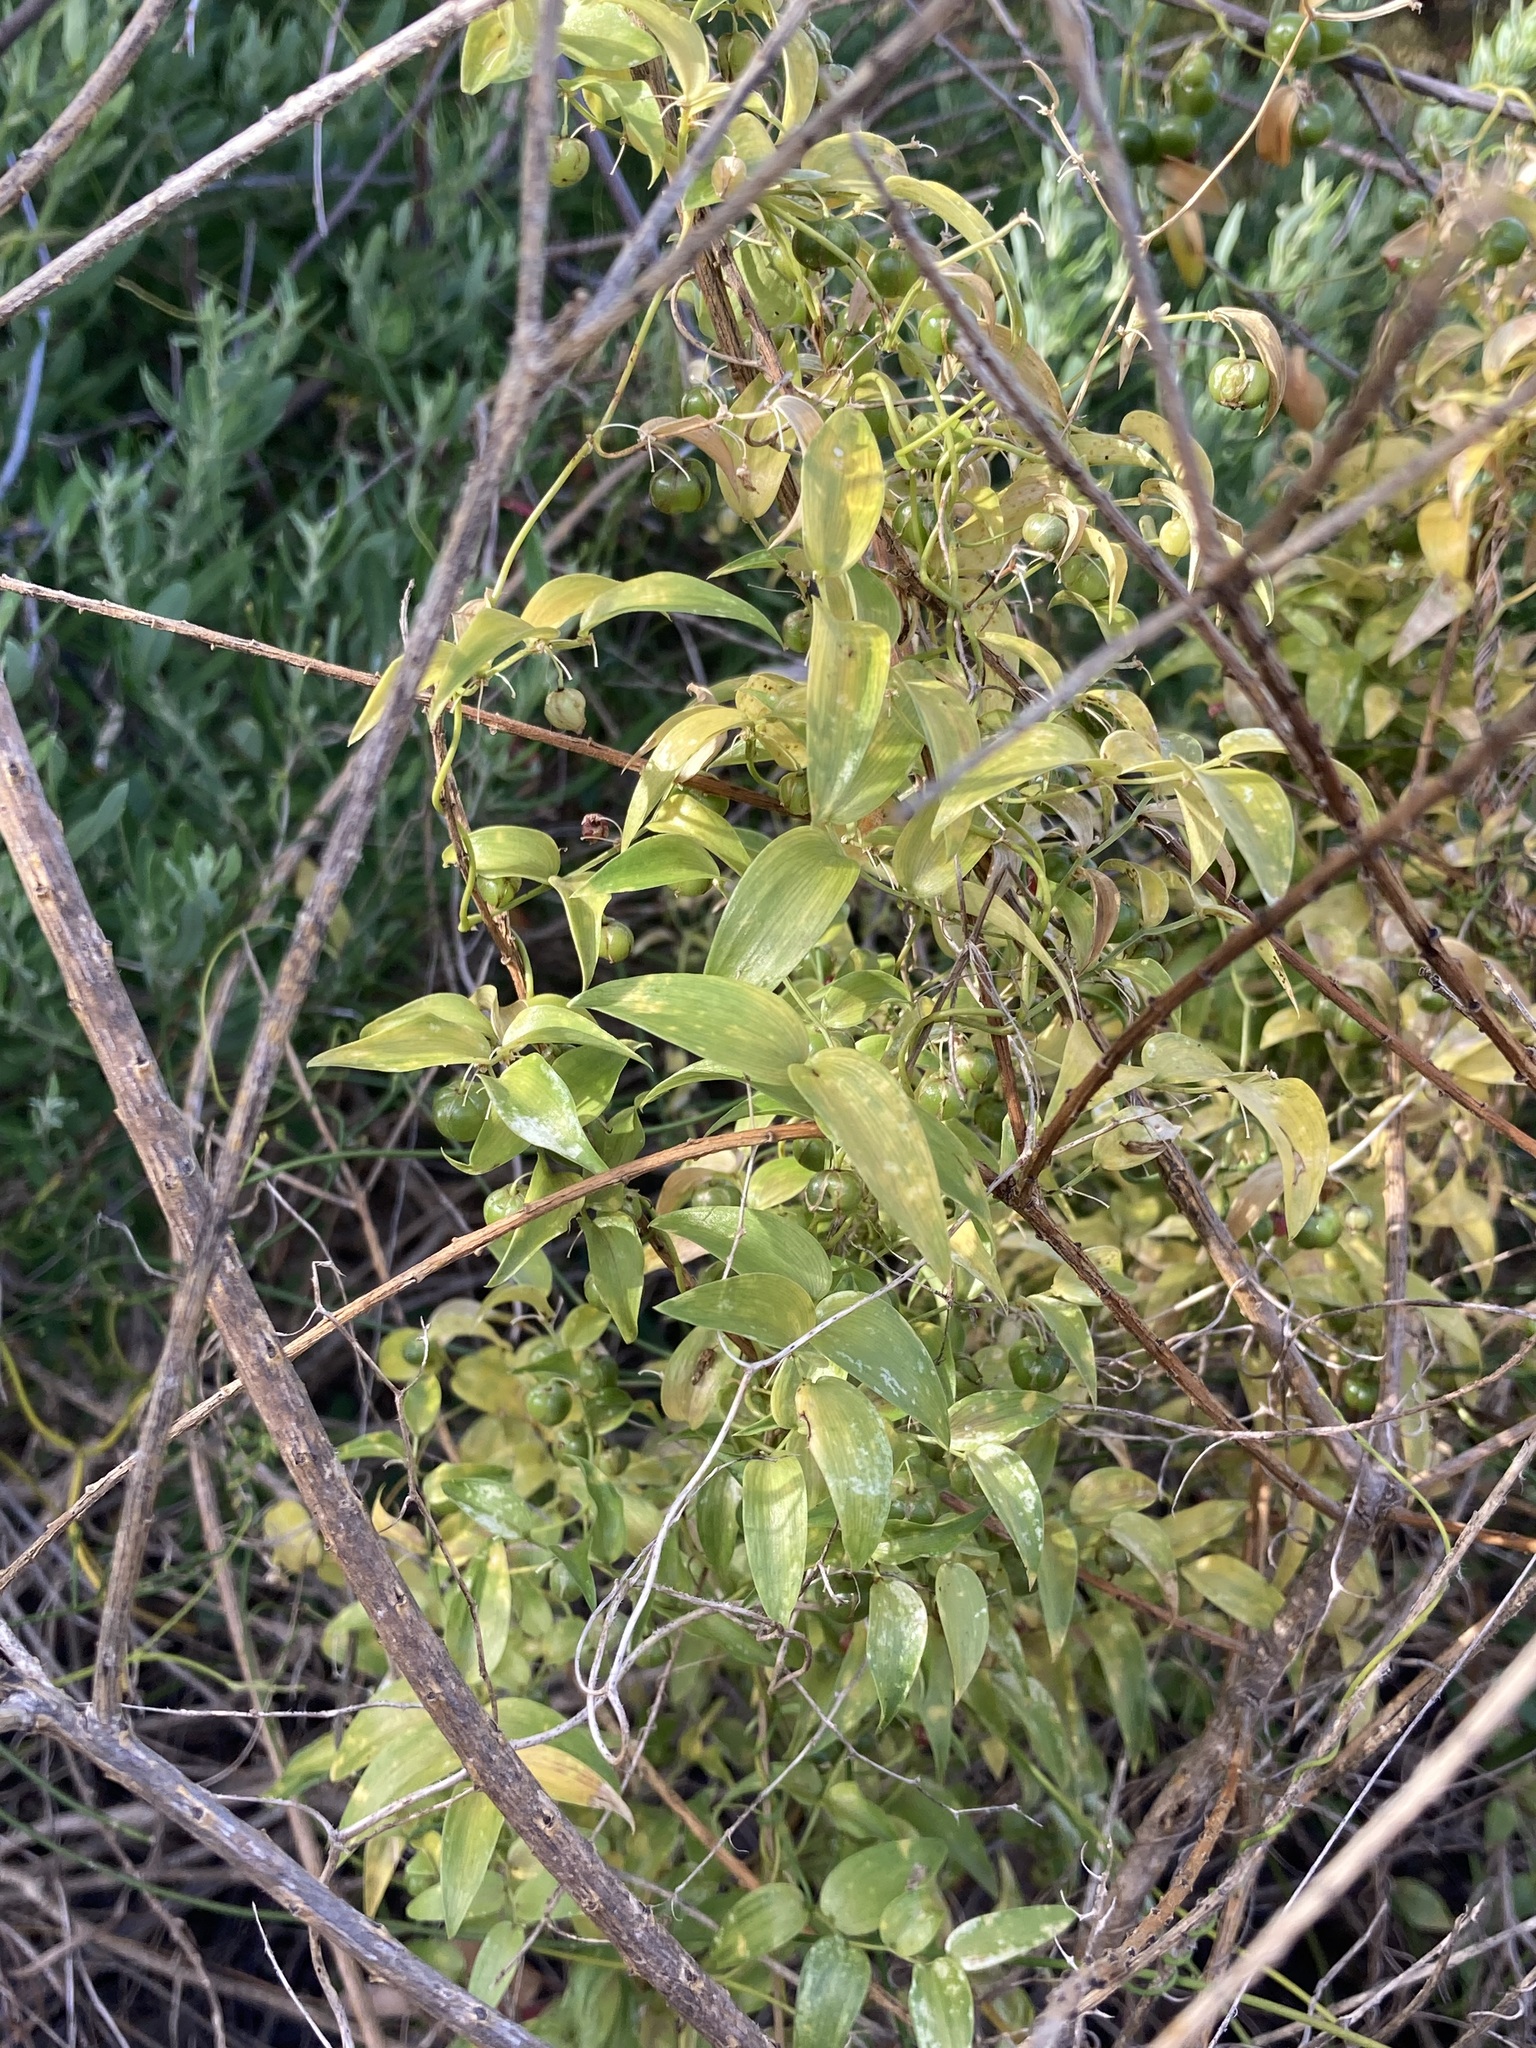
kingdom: Plantae
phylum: Tracheophyta
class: Liliopsida
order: Asparagales
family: Asparagaceae
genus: Asparagus
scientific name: Asparagus asparagoides
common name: African asparagus fern
